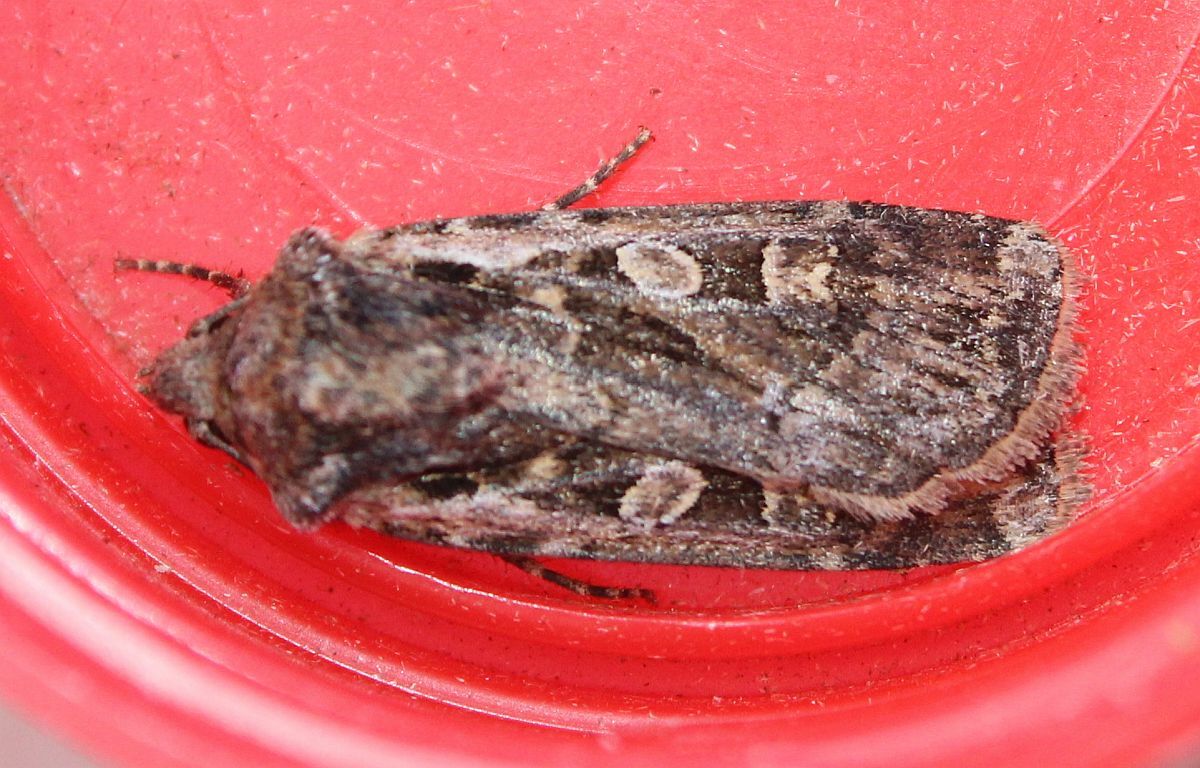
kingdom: Animalia
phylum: Arthropoda
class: Insecta
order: Lepidoptera
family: Noctuidae
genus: Euxoa
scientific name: Euxoa tritici
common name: White-line dart
